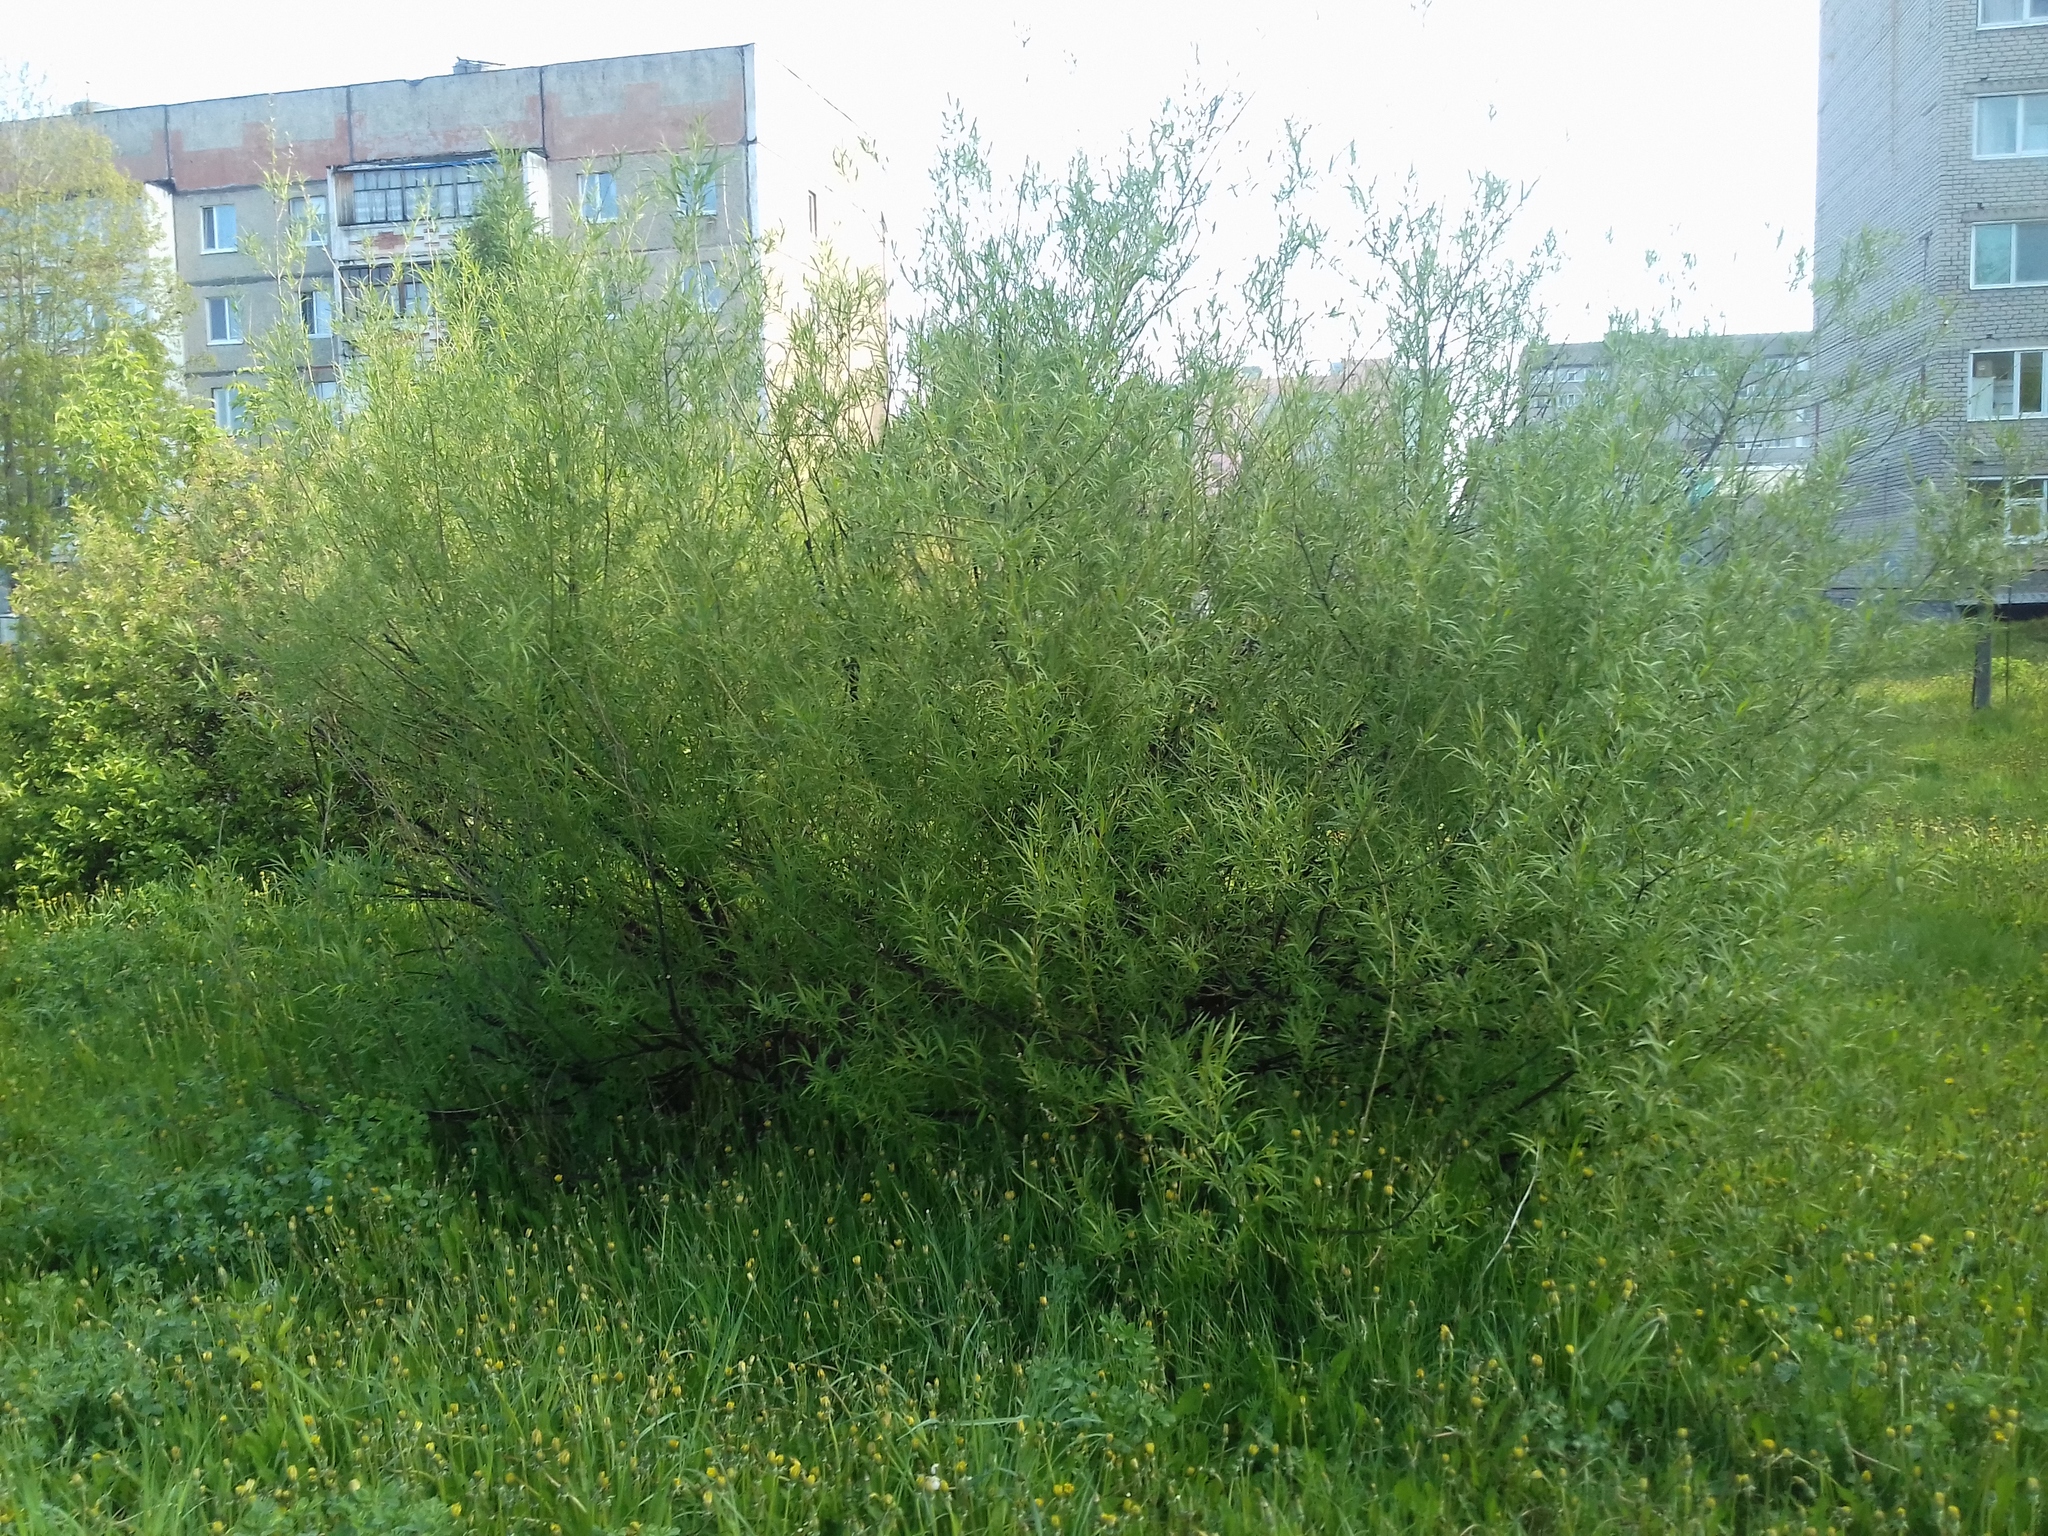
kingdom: Plantae
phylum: Tracheophyta
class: Magnoliopsida
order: Malpighiales
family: Salicaceae
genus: Salix
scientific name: Salix viminalis
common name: Osier
